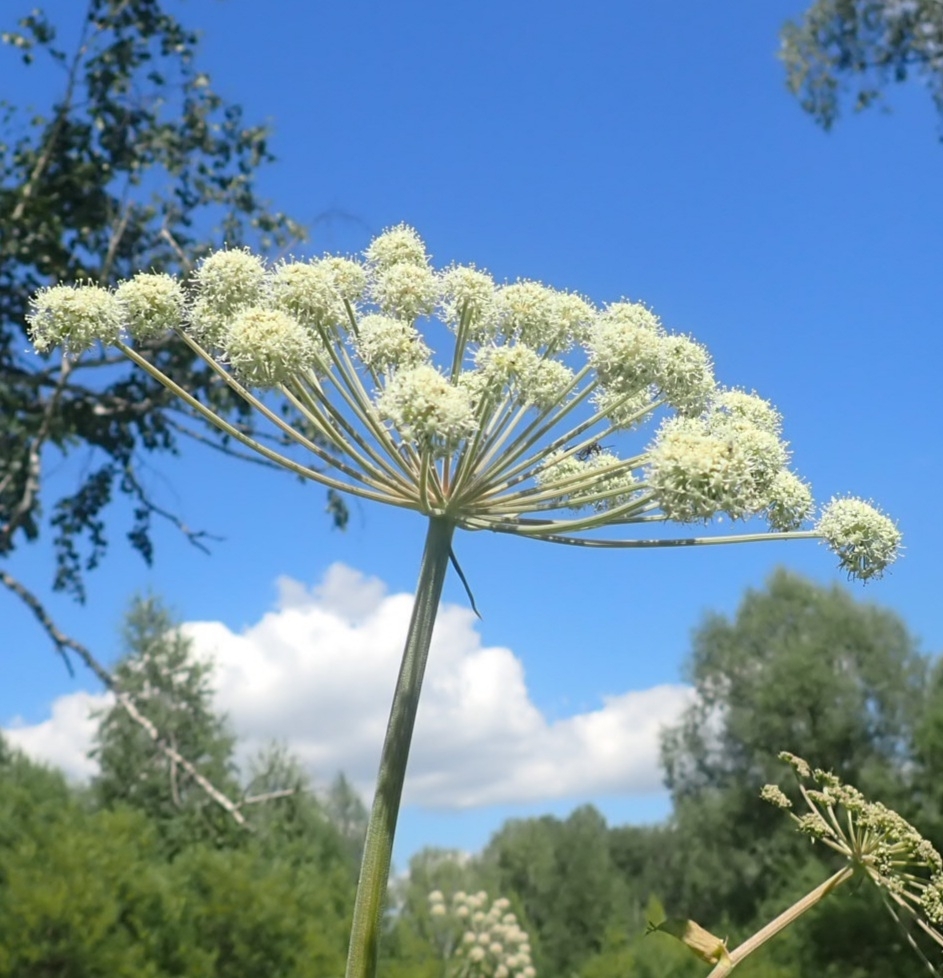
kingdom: Plantae
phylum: Tracheophyta
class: Magnoliopsida
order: Apiales
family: Apiaceae
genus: Angelica
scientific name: Angelica sylvestris
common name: Wild angelica
